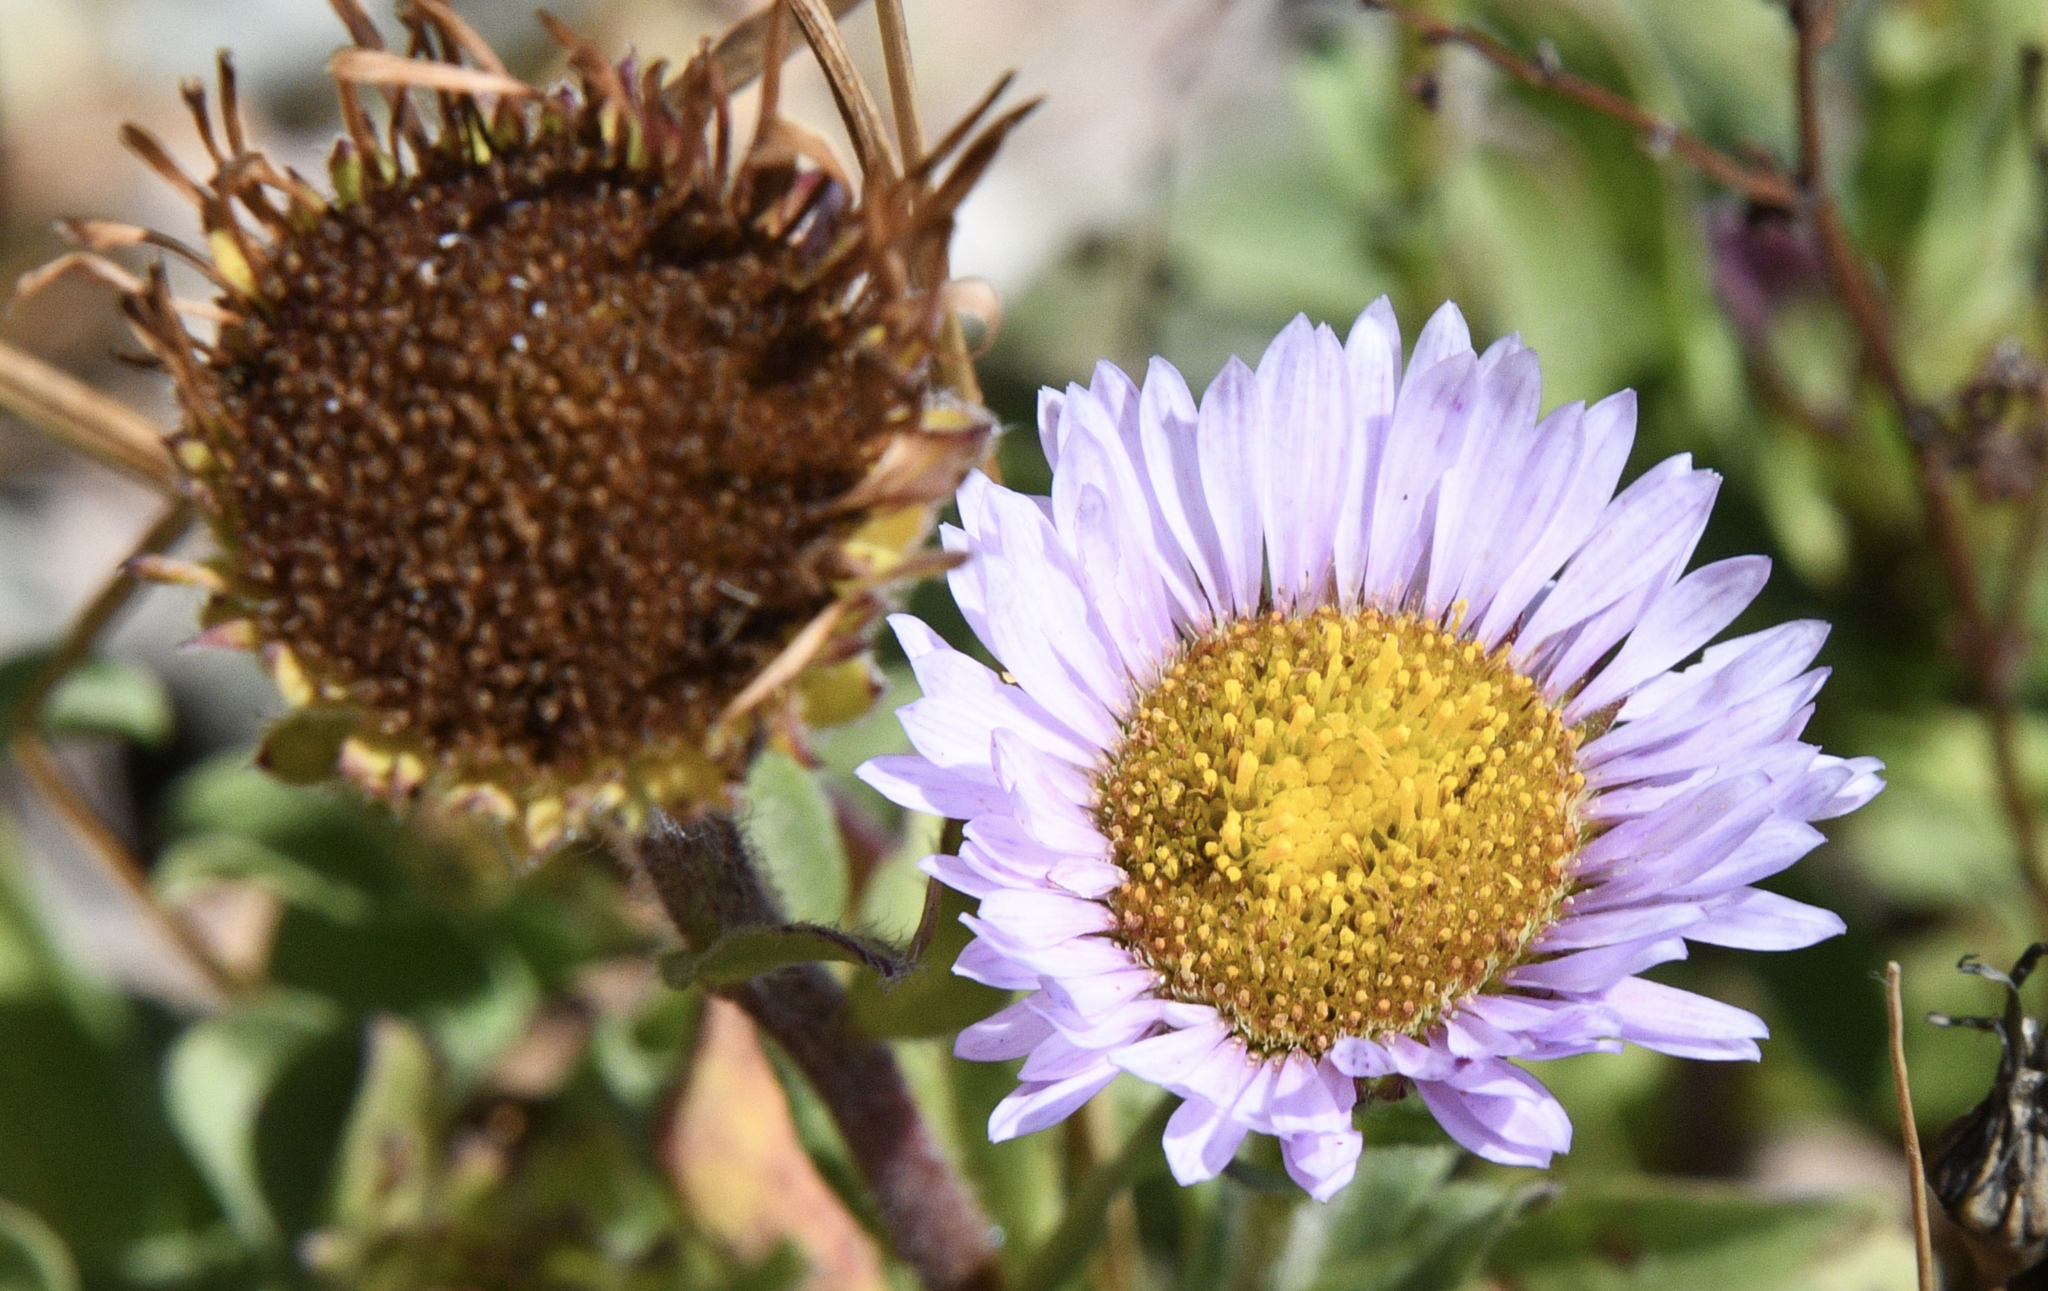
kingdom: Plantae
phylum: Tracheophyta
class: Magnoliopsida
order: Asterales
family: Asteraceae
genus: Erigeron
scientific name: Erigeron glaucus
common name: Seaside daisy
